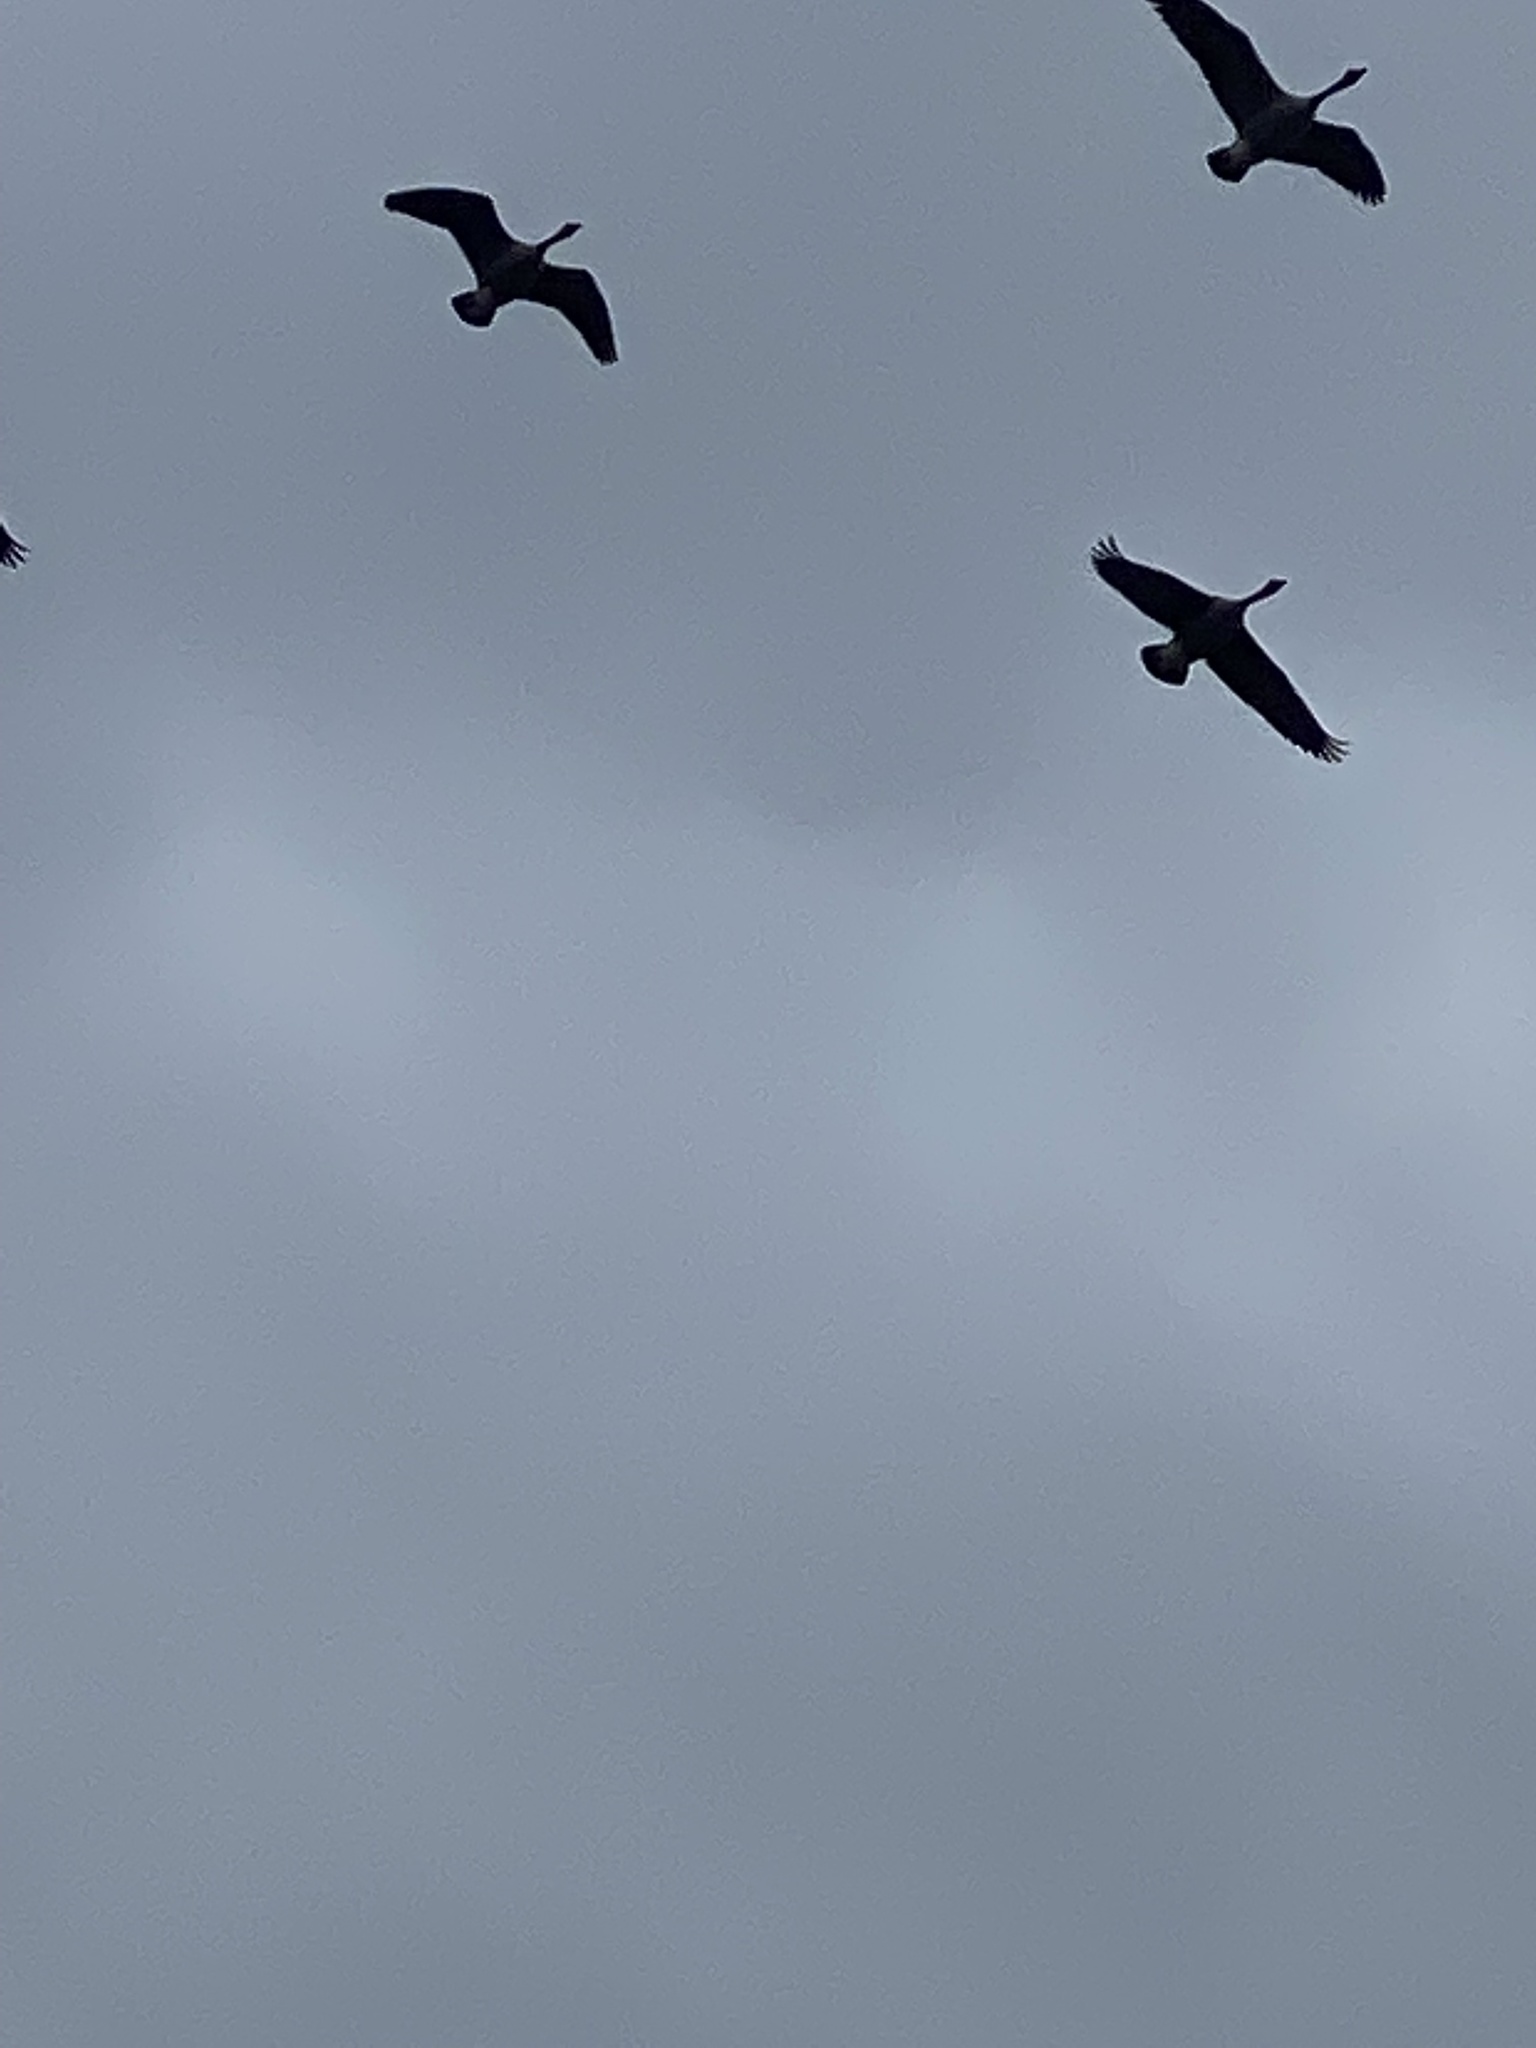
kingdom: Animalia
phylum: Chordata
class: Aves
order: Anseriformes
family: Anatidae
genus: Branta
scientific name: Branta canadensis
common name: Canada goose
